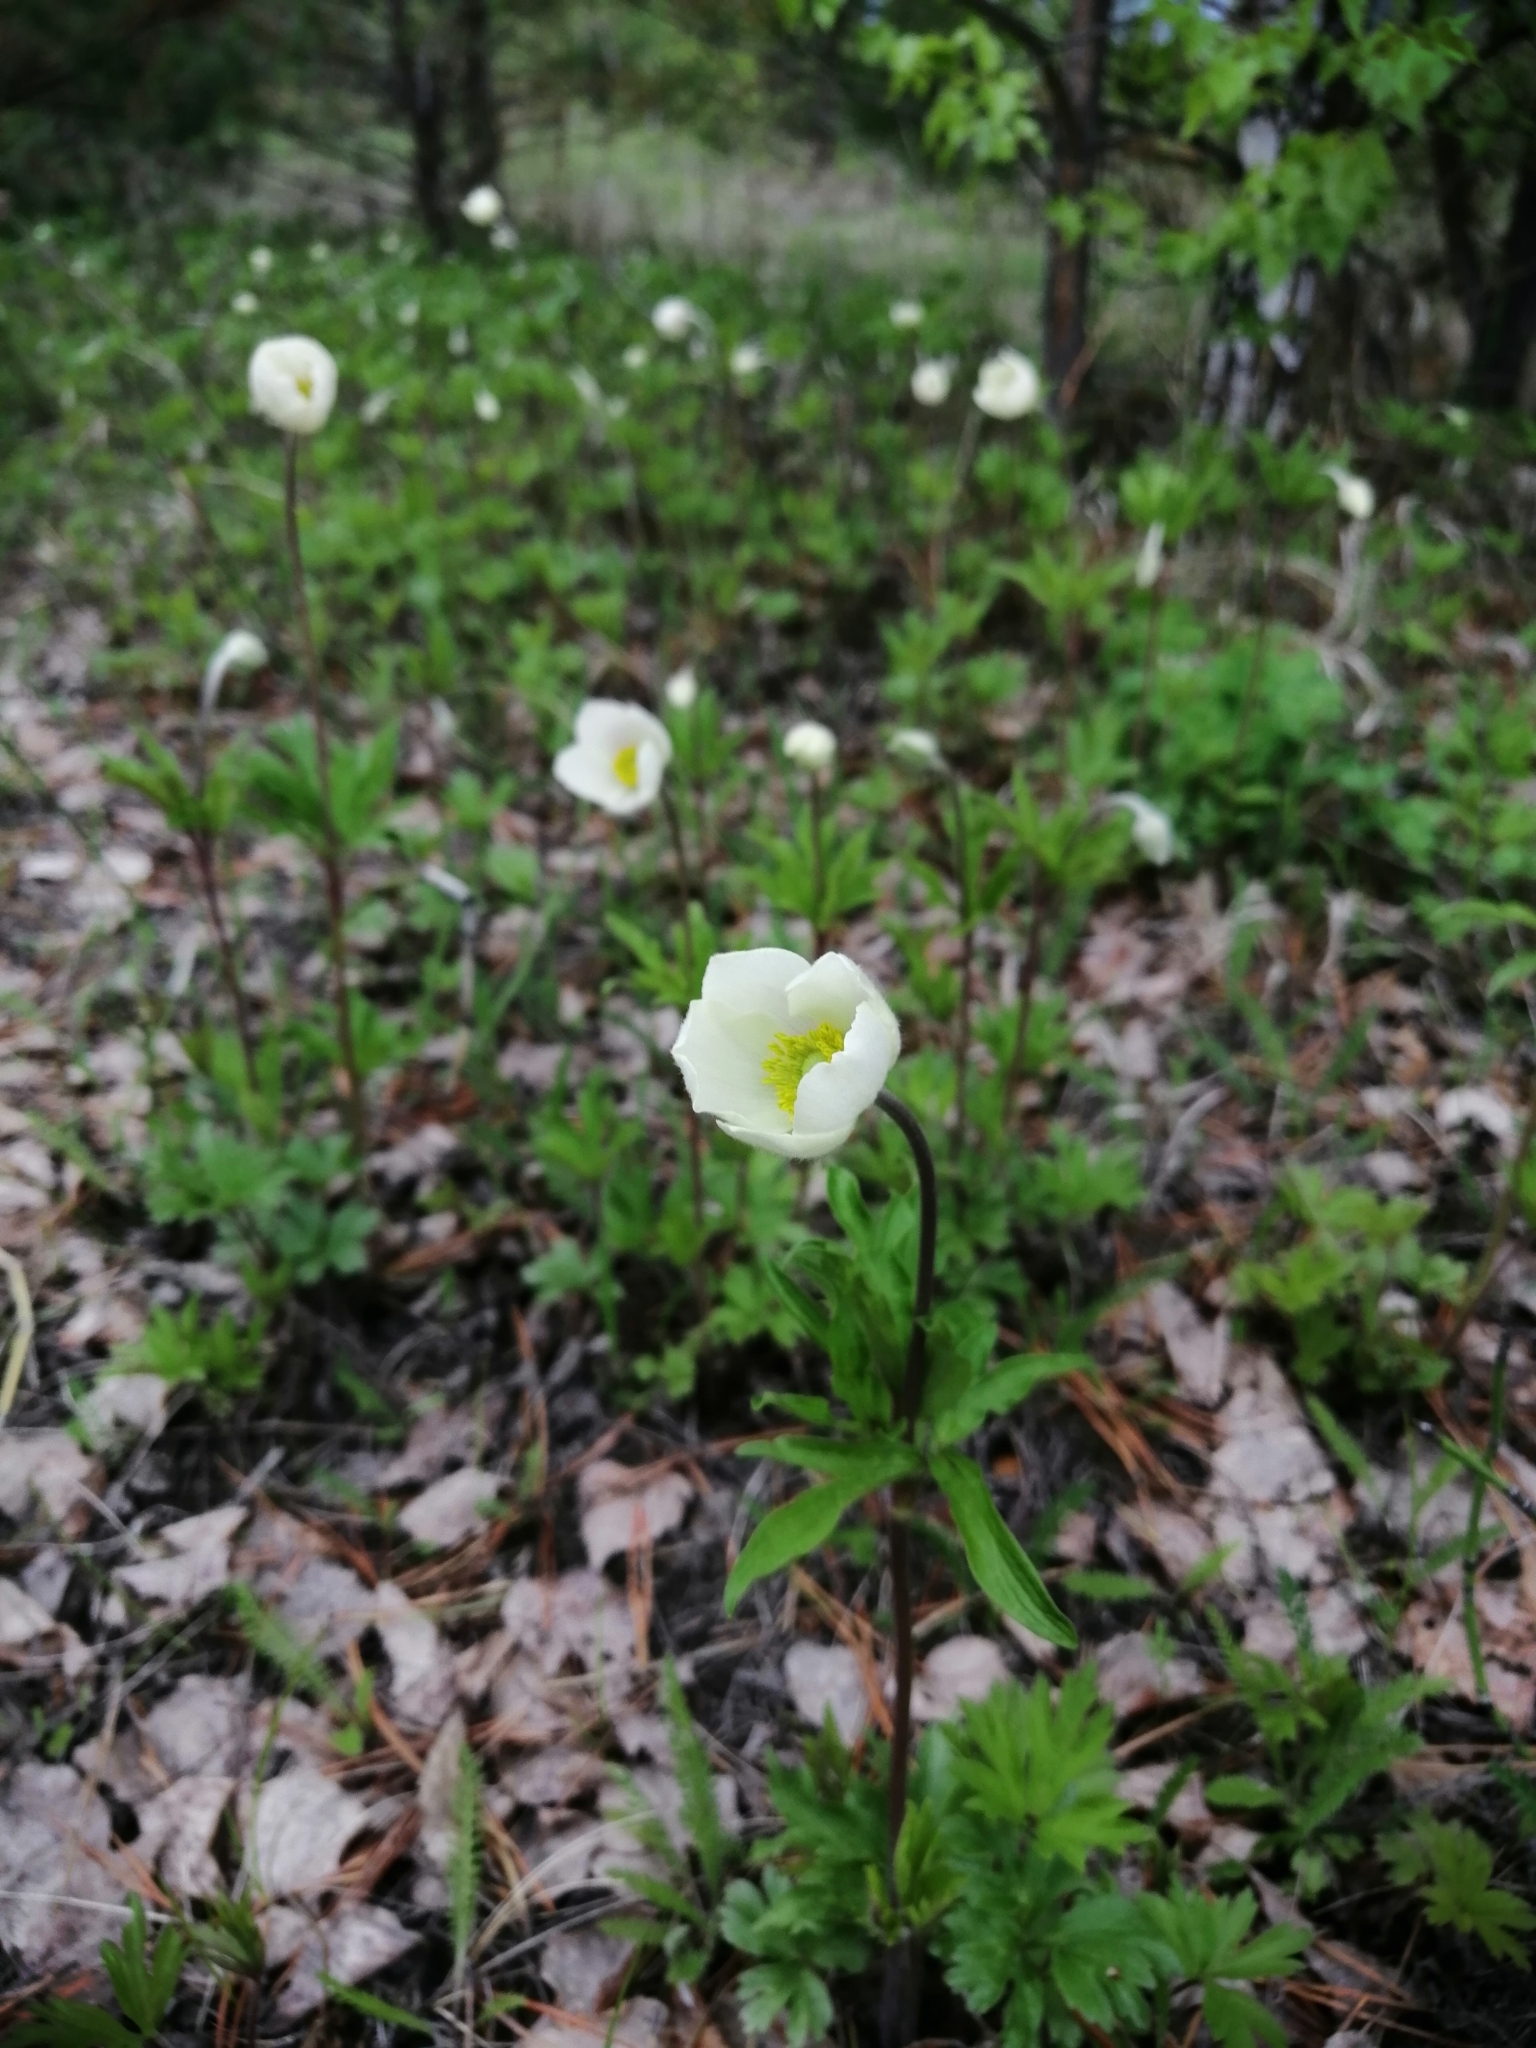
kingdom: Plantae
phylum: Tracheophyta
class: Magnoliopsida
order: Ranunculales
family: Ranunculaceae
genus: Anemone
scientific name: Anemone sylvestris
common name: Snowdrop anemone
